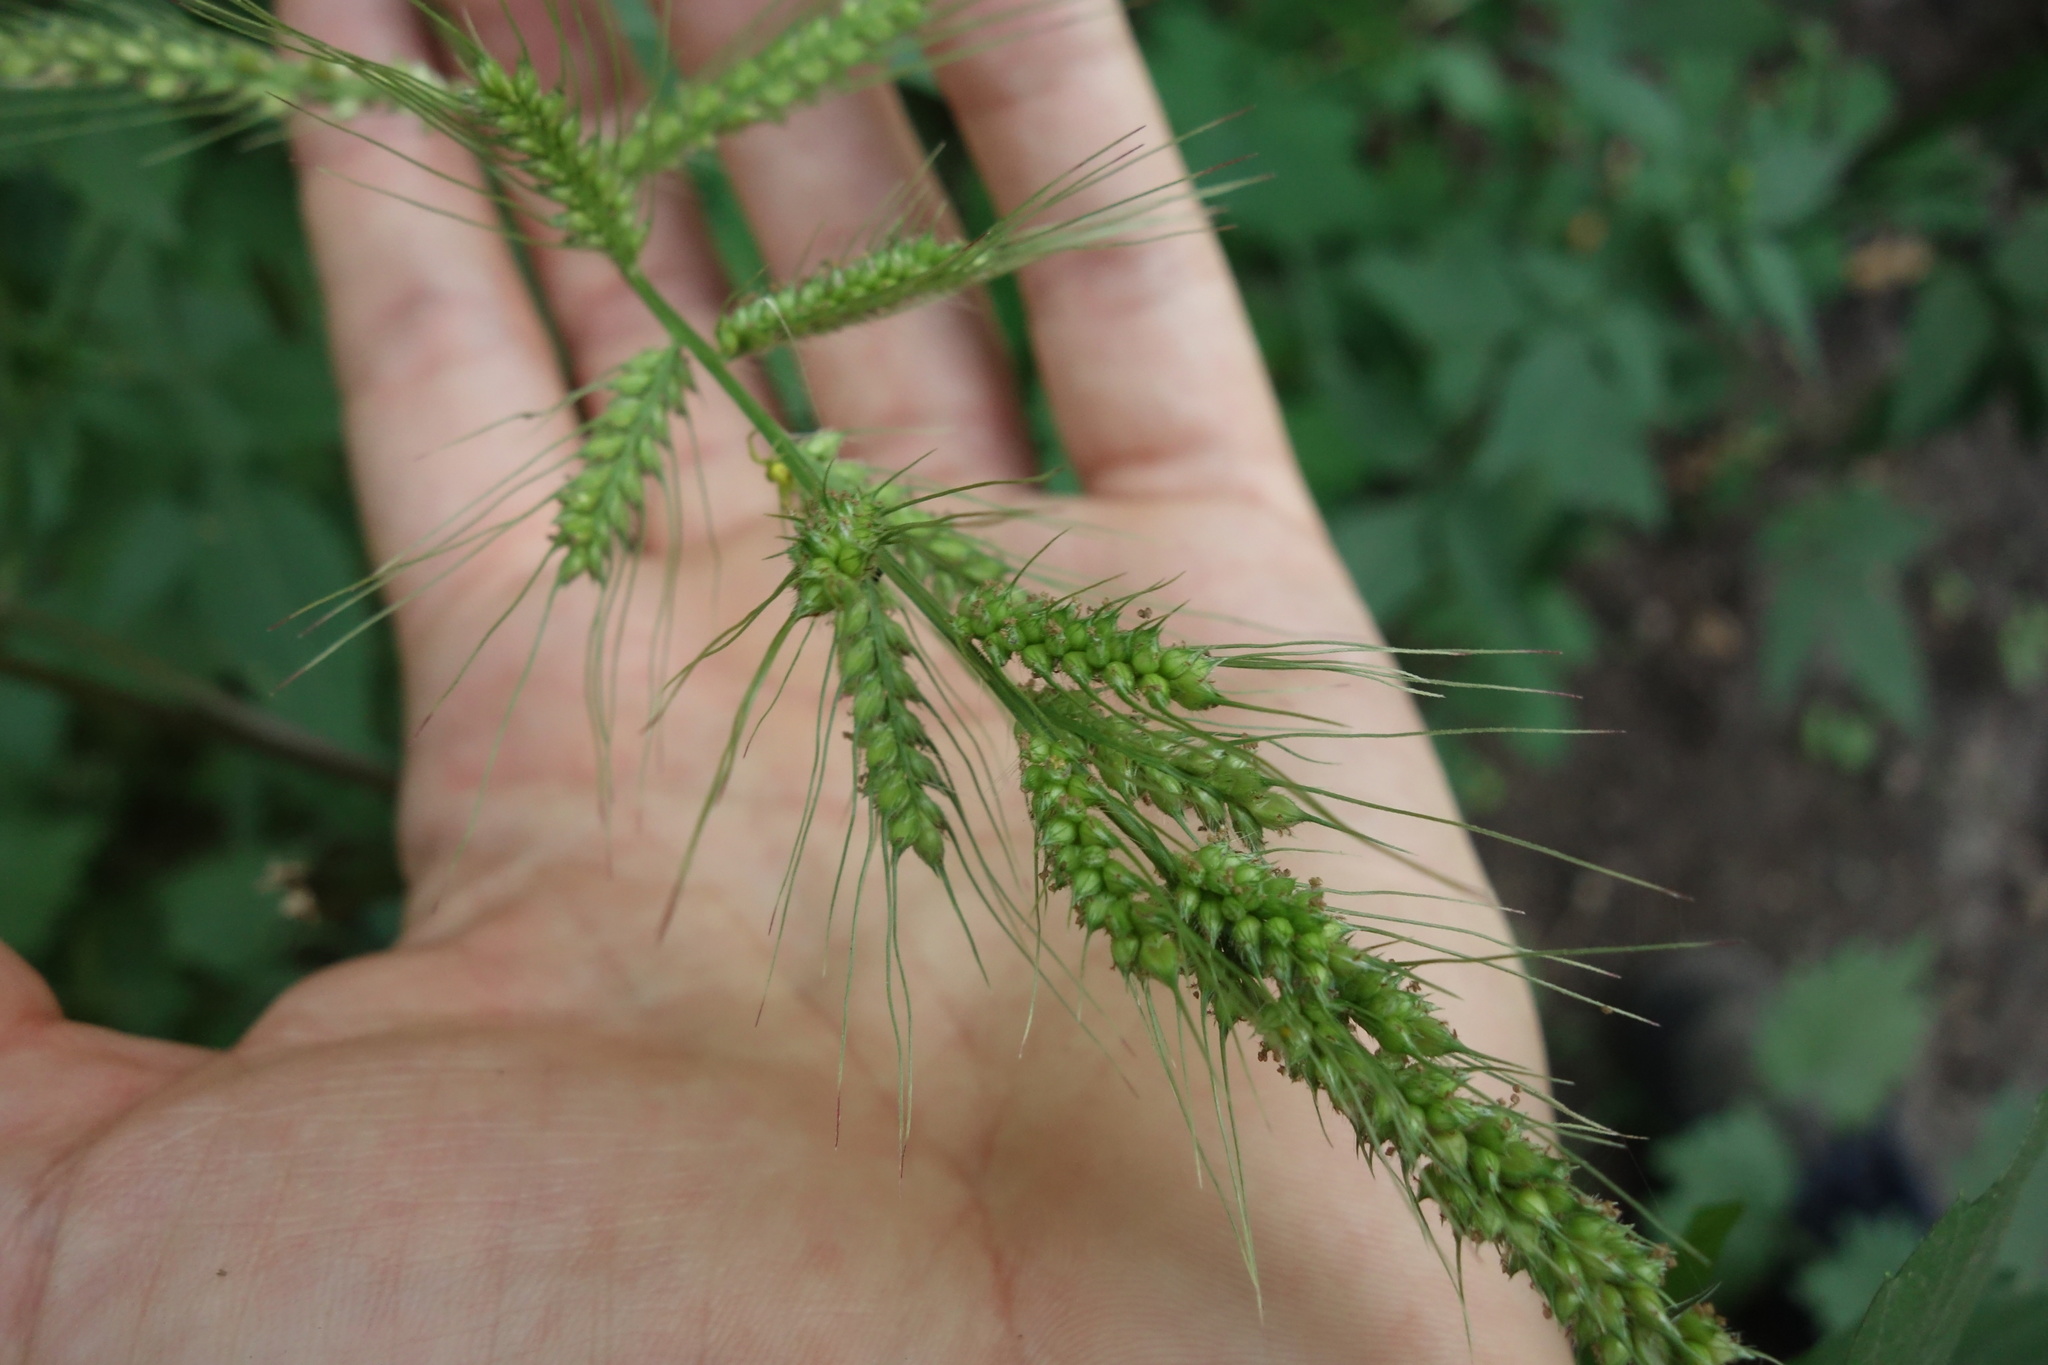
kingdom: Plantae
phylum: Tracheophyta
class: Liliopsida
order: Poales
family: Poaceae
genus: Echinochloa
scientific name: Echinochloa crus-galli
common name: Cockspur
